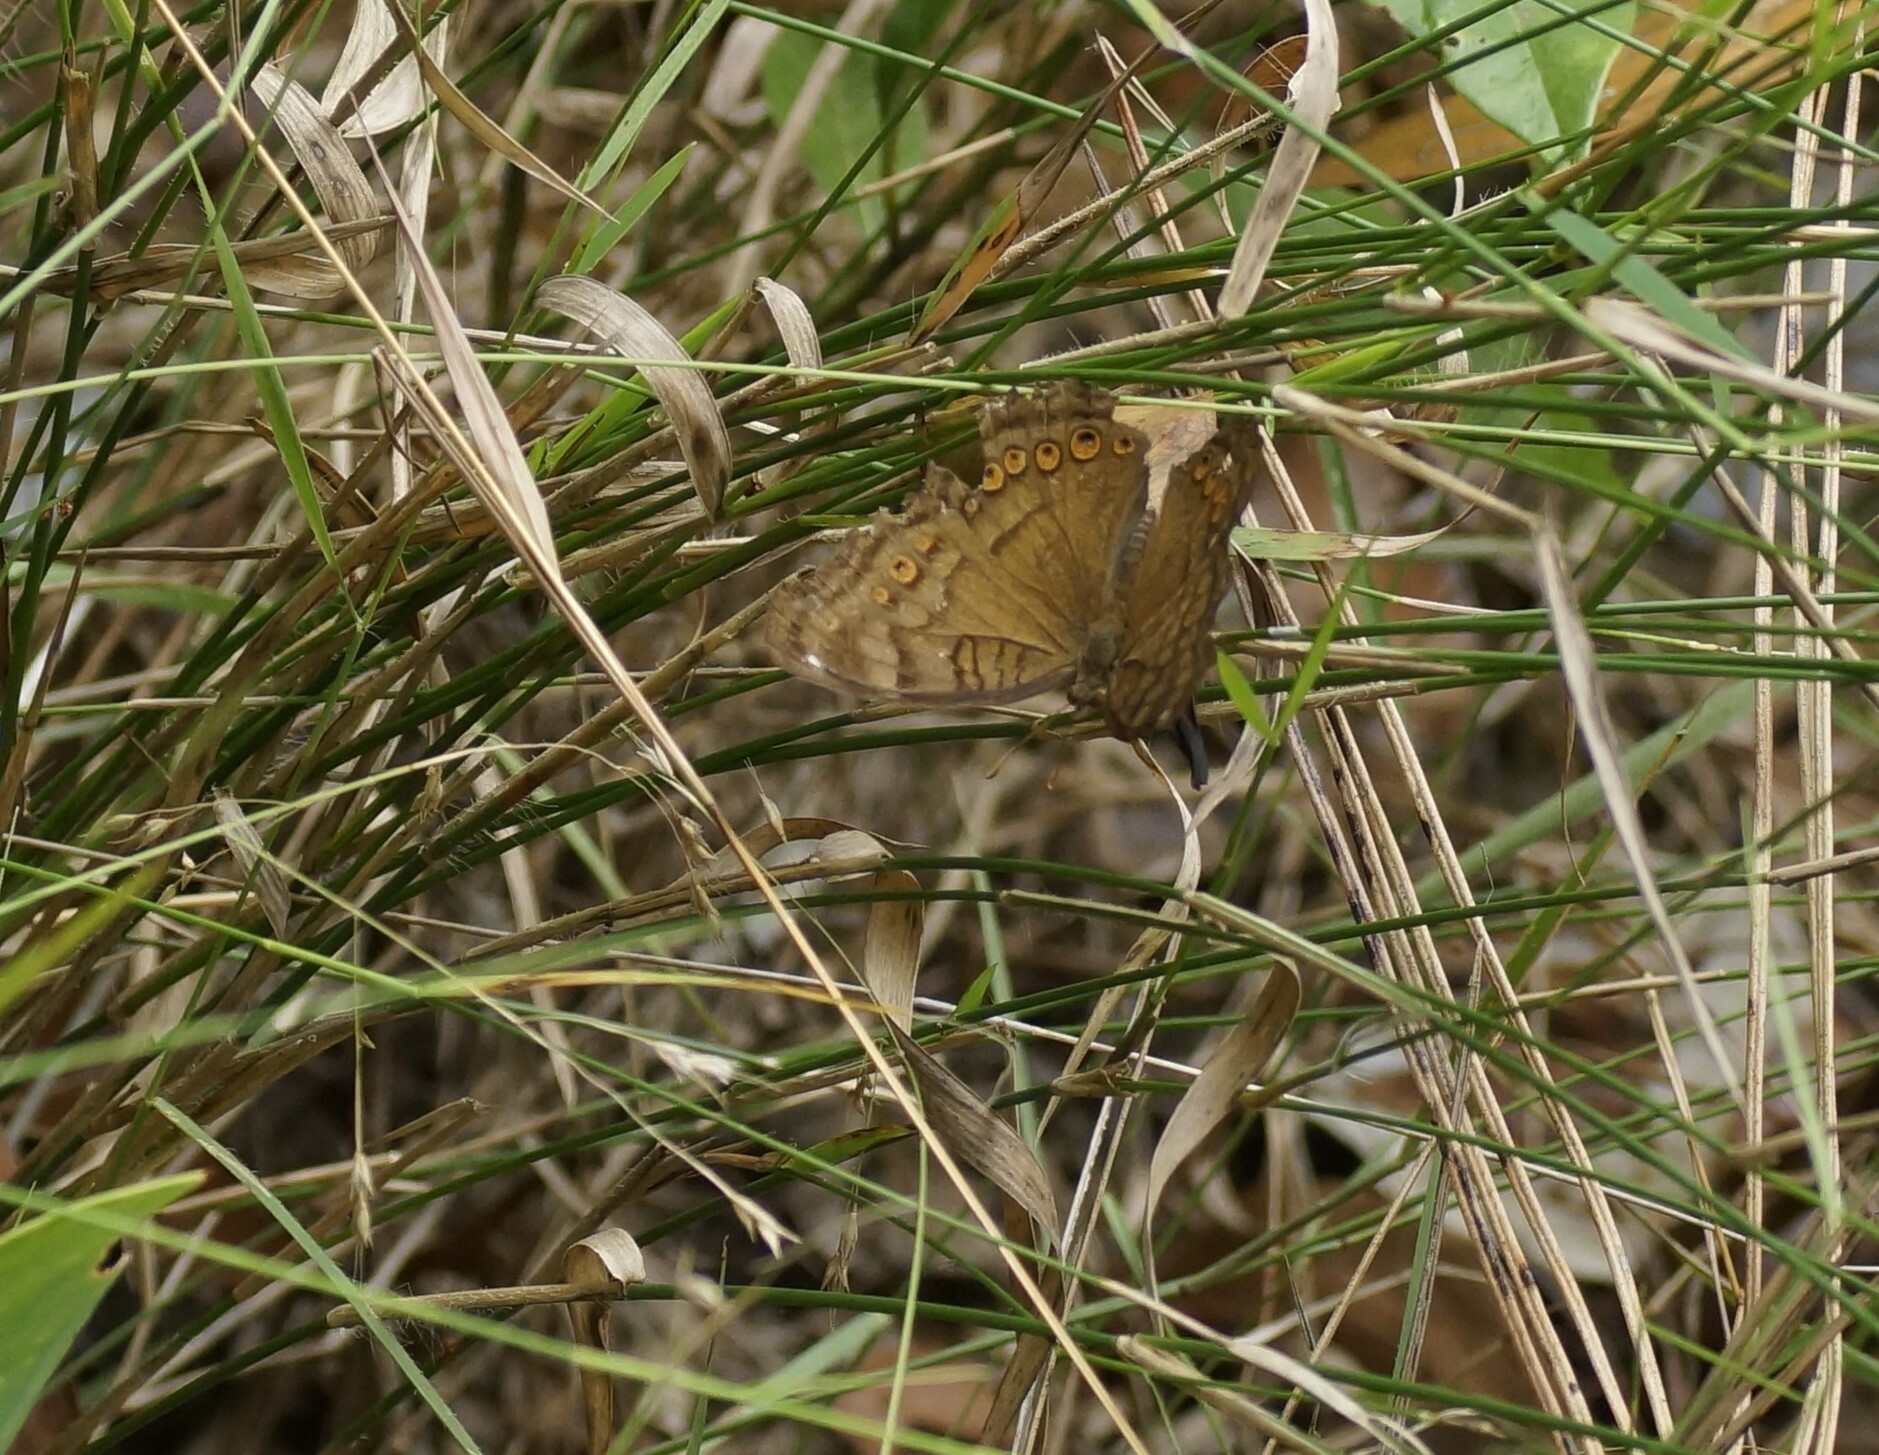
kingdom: Animalia
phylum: Arthropoda
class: Insecta
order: Lepidoptera
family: Nymphalidae
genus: Junonia
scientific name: Junonia hedonia
